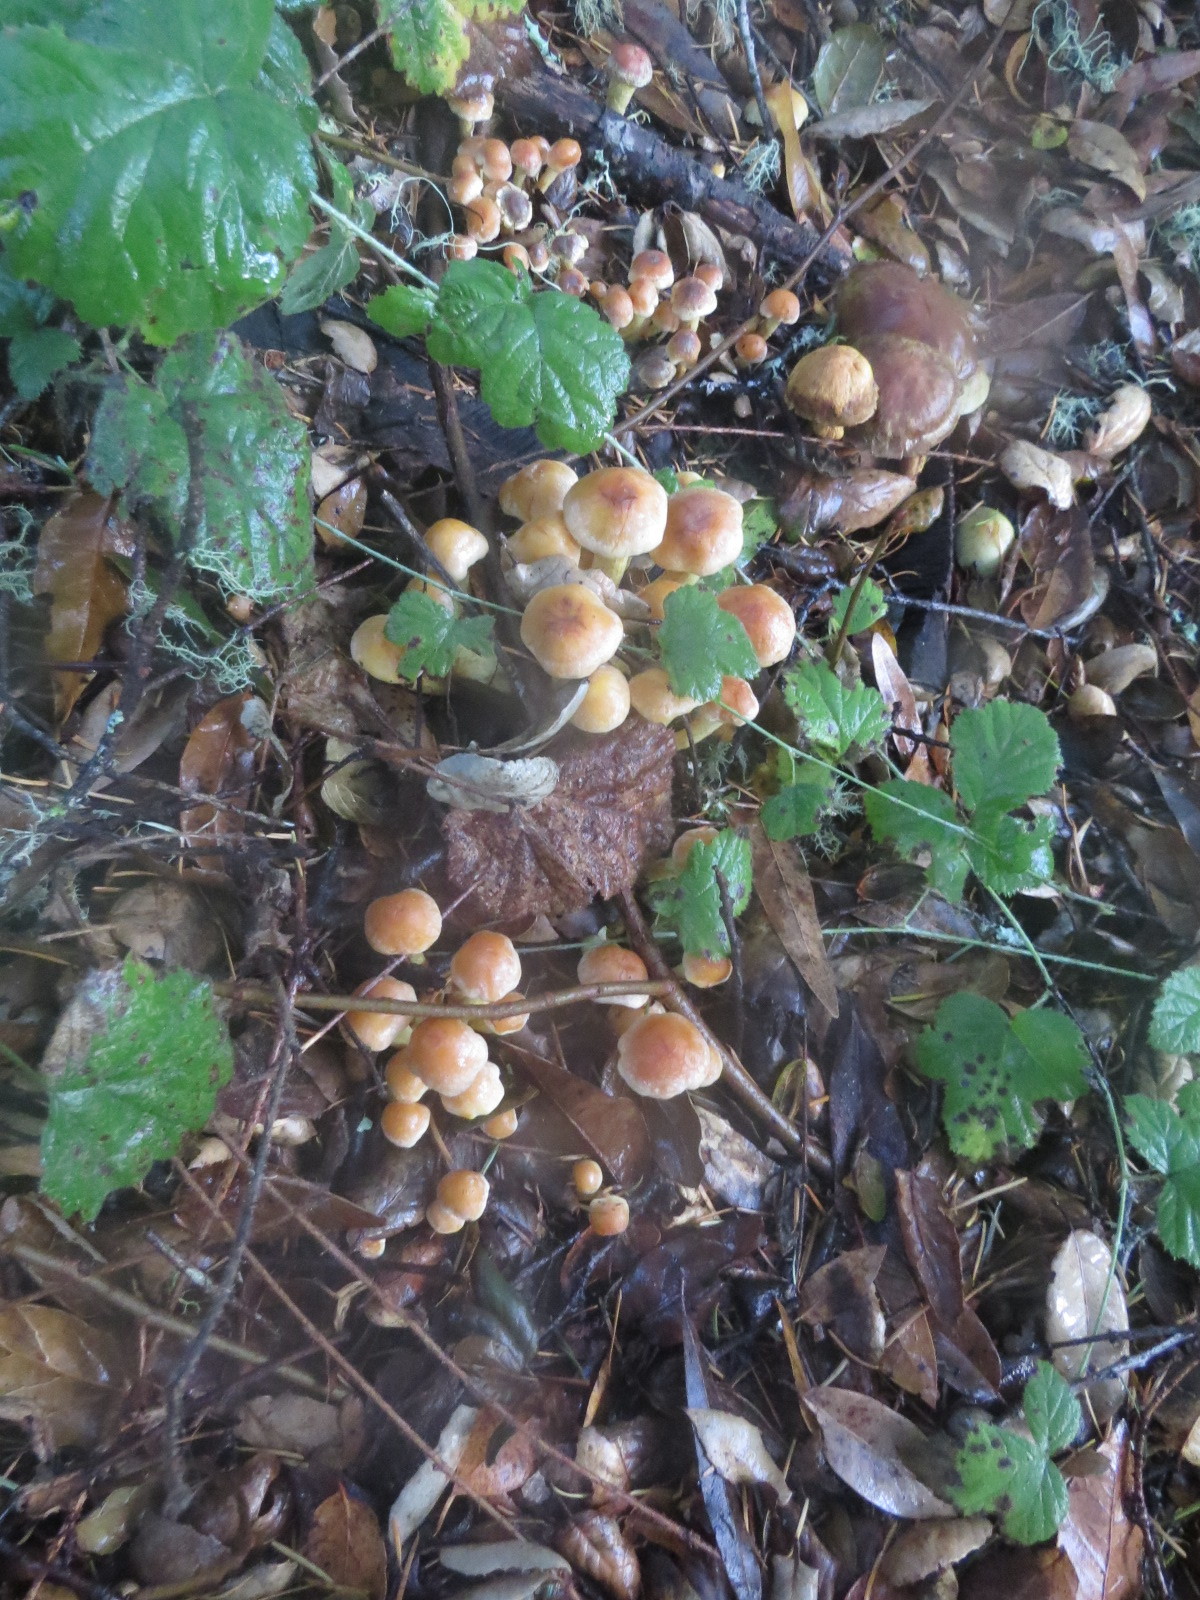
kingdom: Fungi
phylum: Basidiomycota
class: Agaricomycetes
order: Agaricales
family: Strophariaceae
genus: Hypholoma
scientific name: Hypholoma fasciculare
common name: Sulphur tuft
